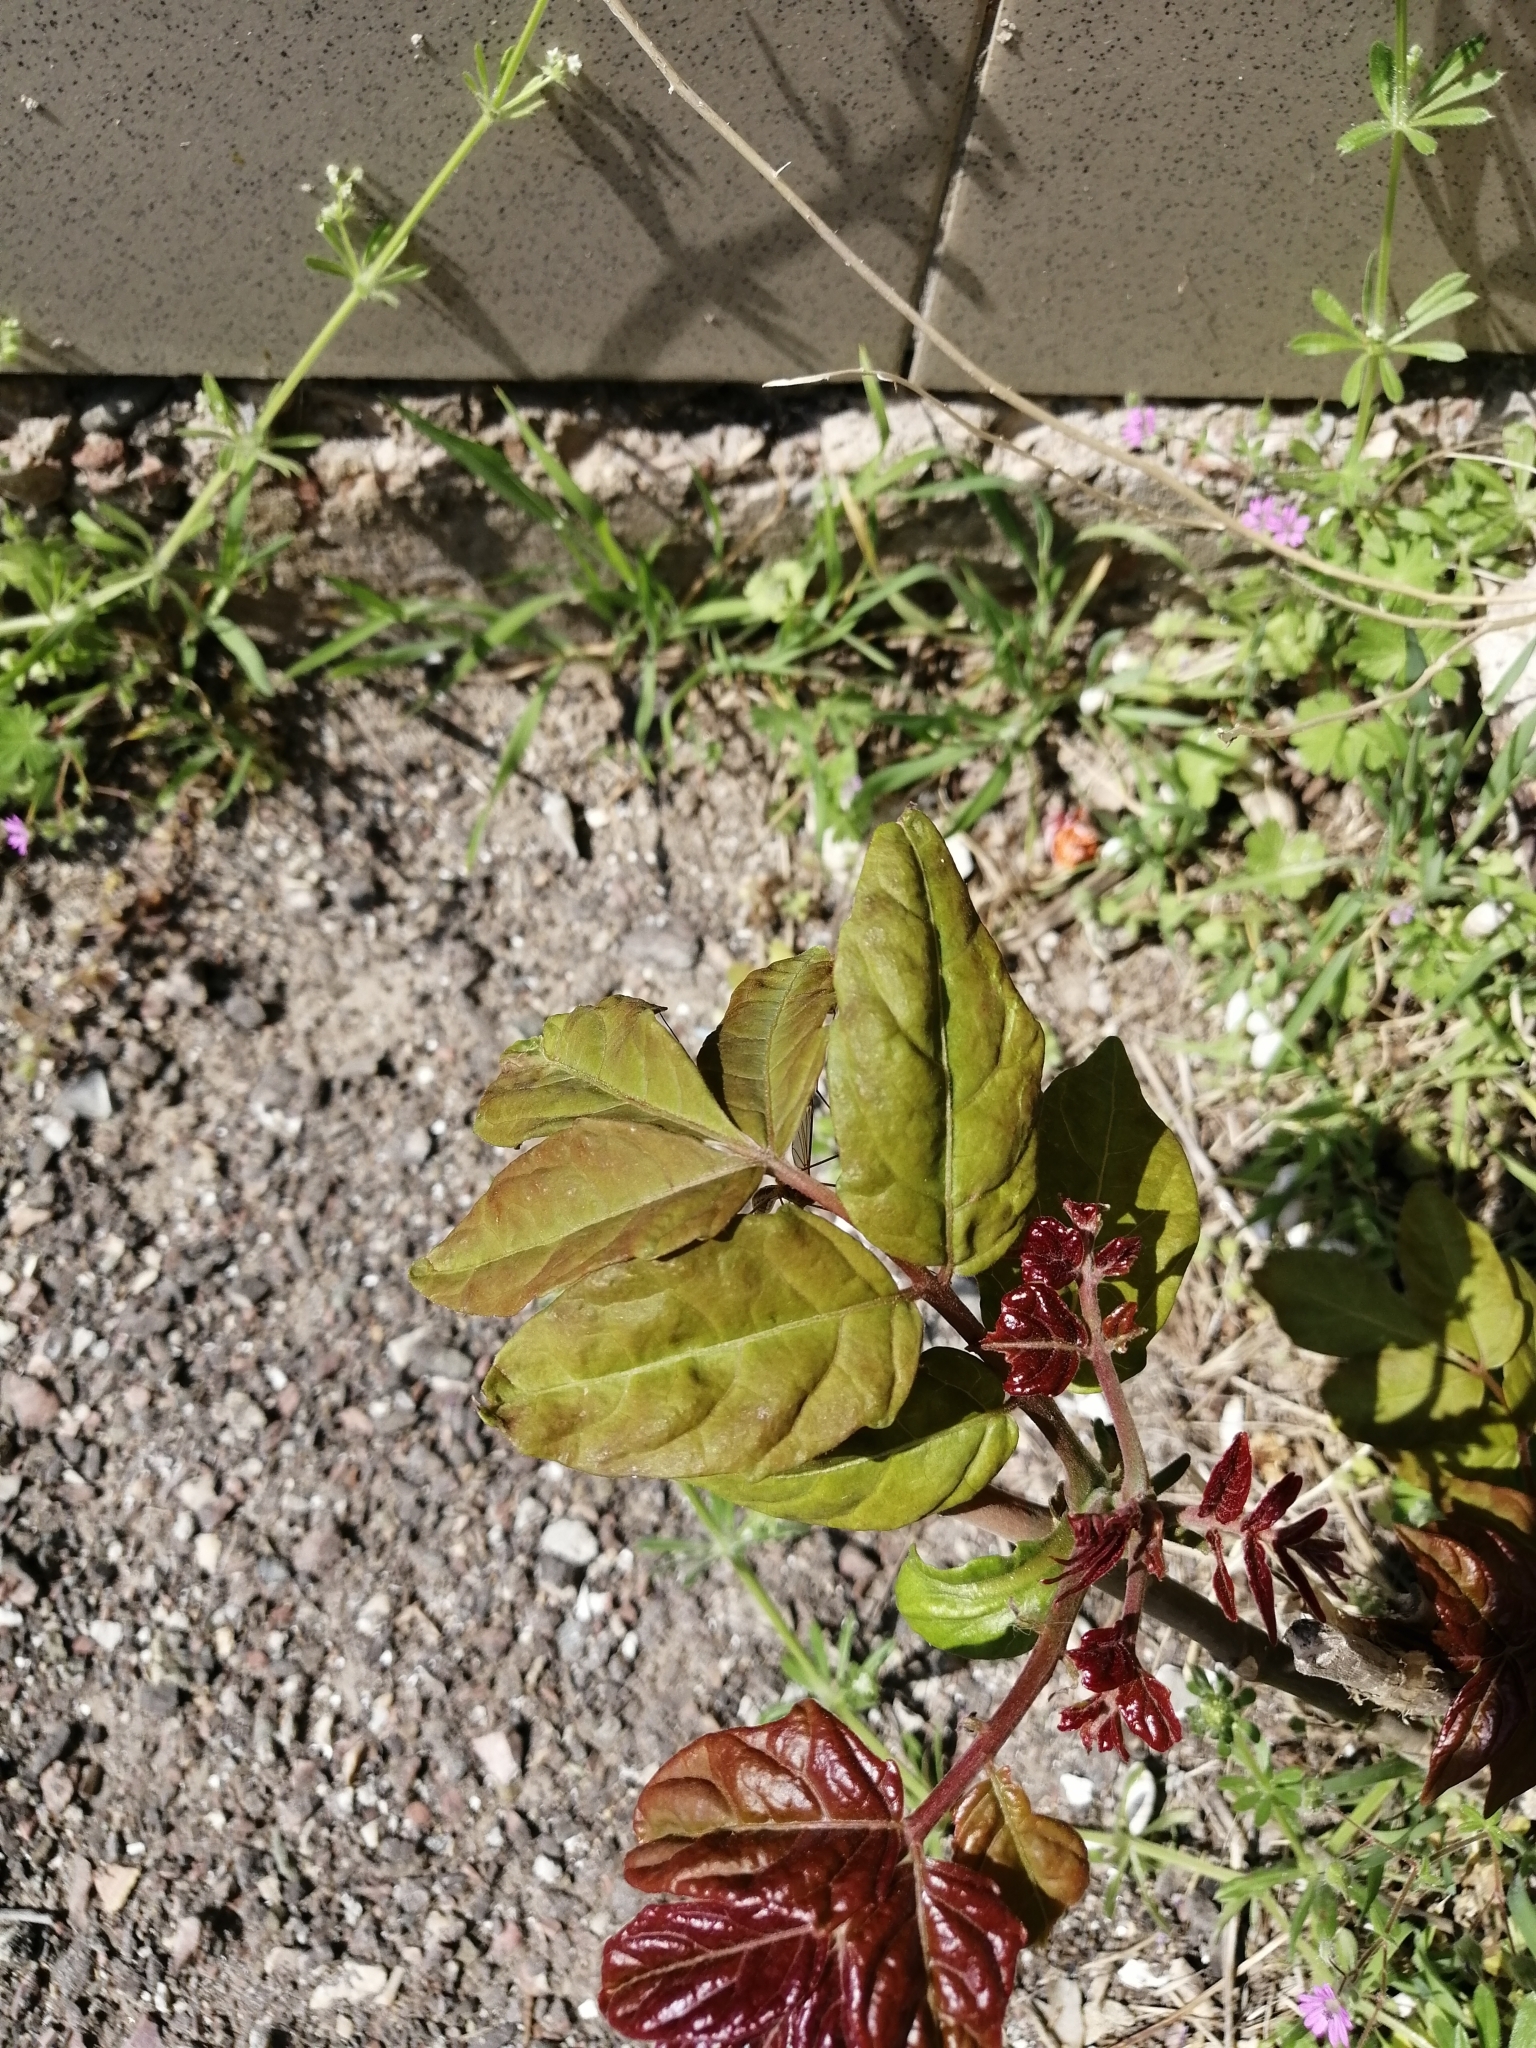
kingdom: Plantae
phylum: Tracheophyta
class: Magnoliopsida
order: Sapindales
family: Simaroubaceae
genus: Ailanthus
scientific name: Ailanthus altissima
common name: Tree-of-heaven
